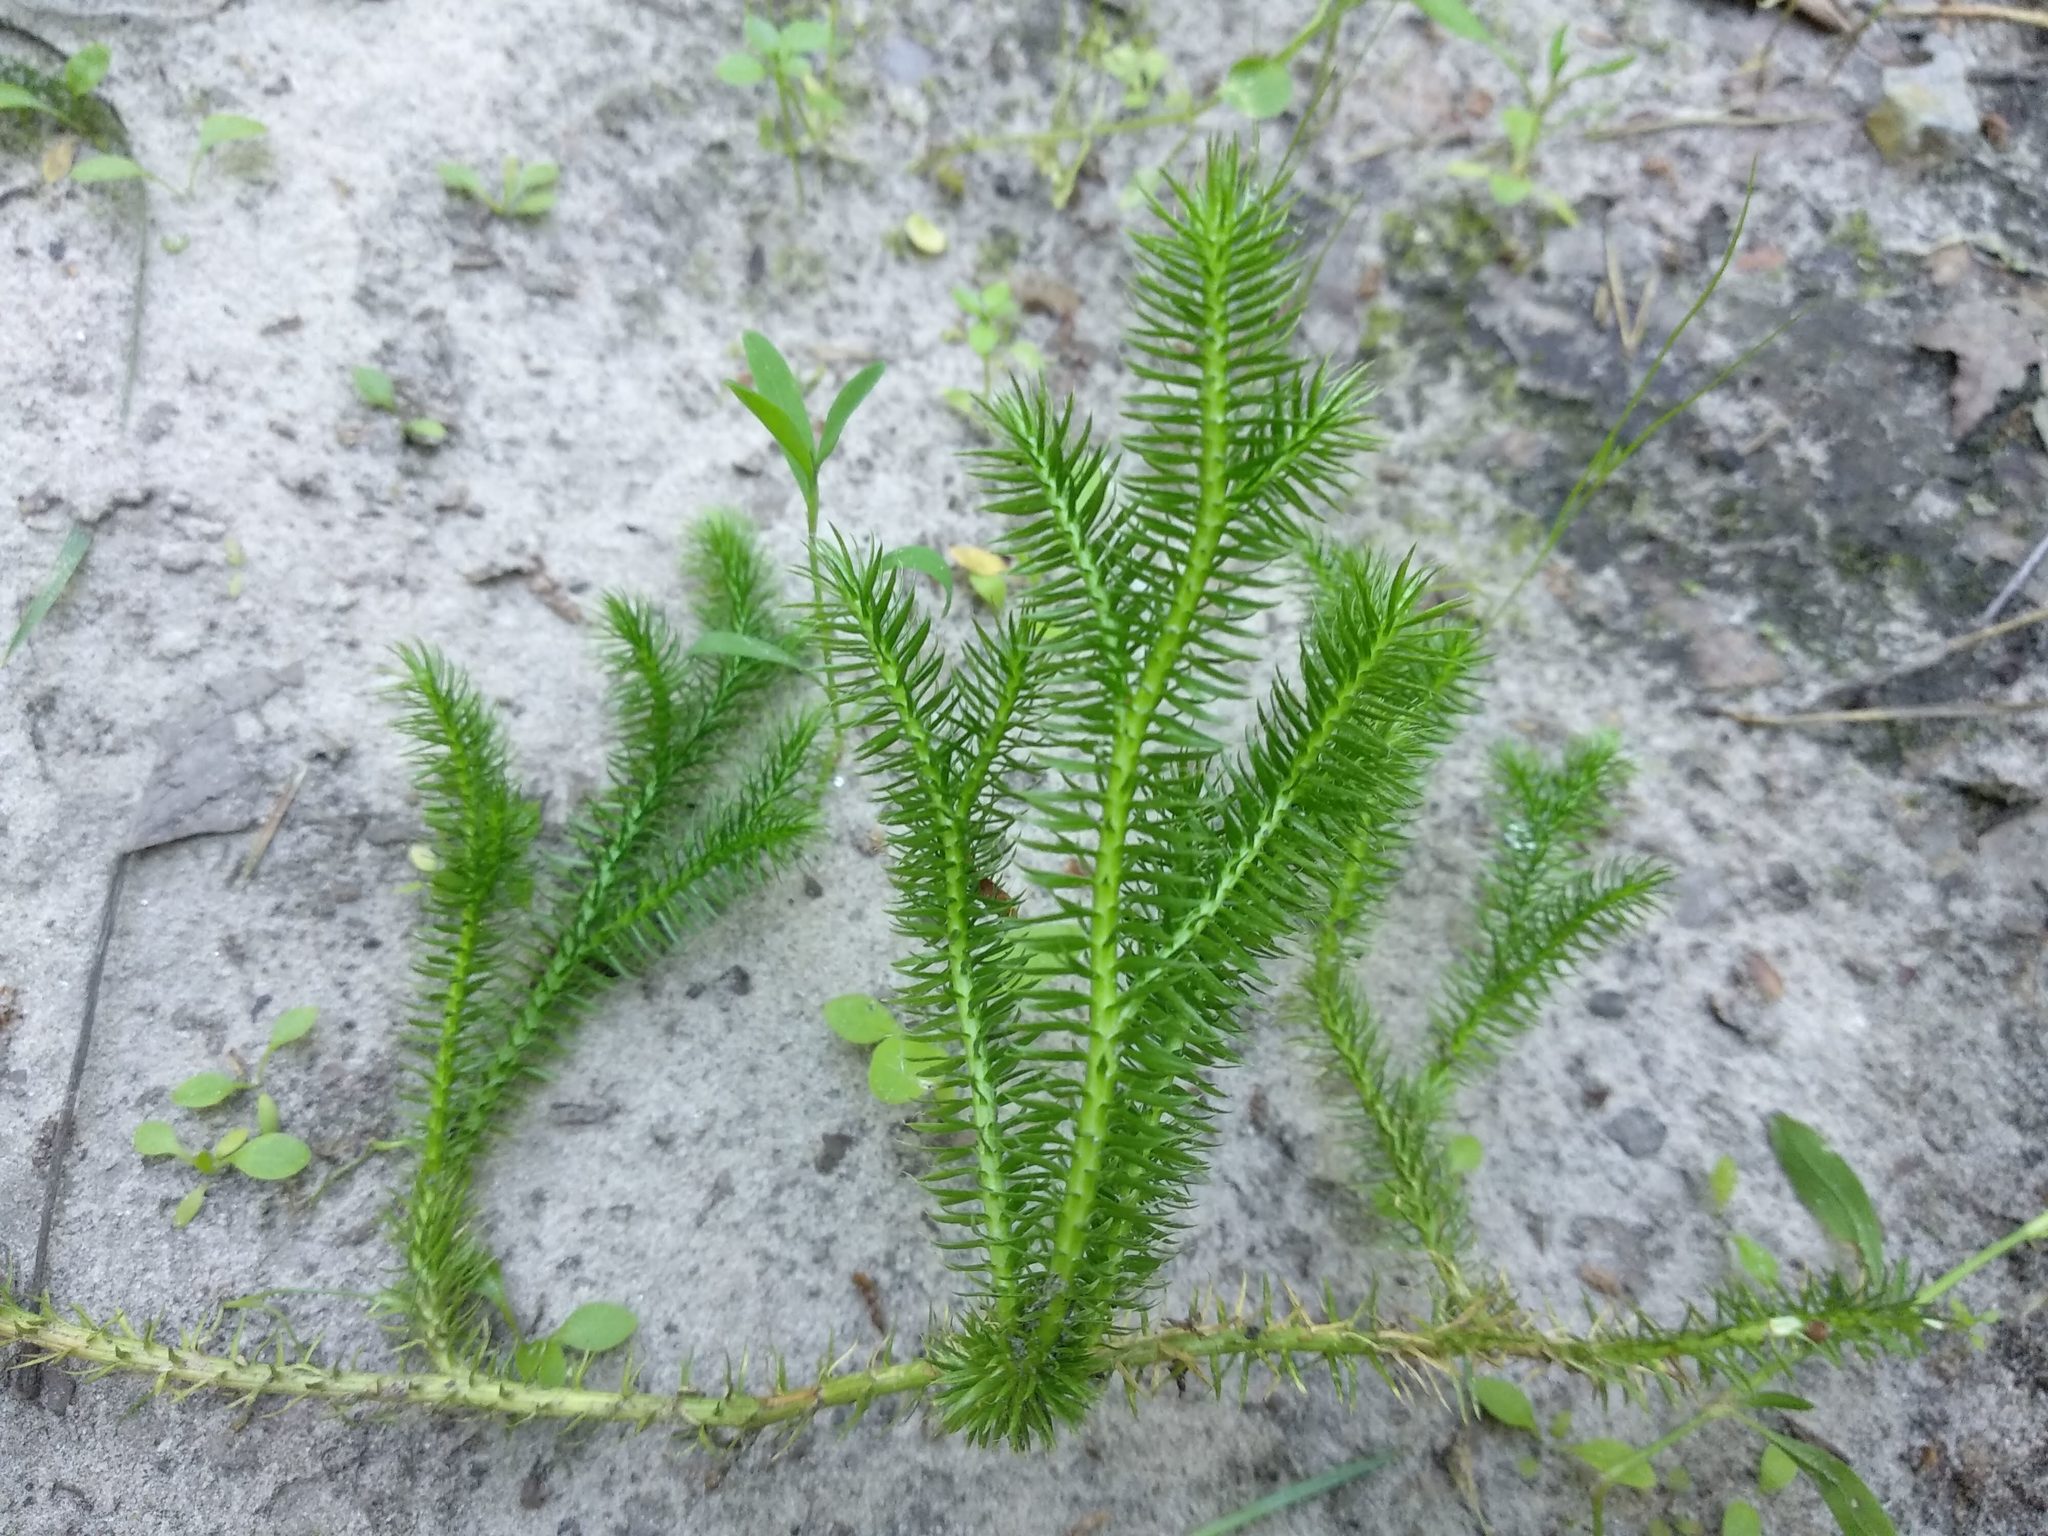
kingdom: Plantae
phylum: Tracheophyta
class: Lycopodiopsida
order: Lycopodiales
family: Lycopodiaceae
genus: Spinulum
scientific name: Spinulum annotinum
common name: Interrupted club-moss
